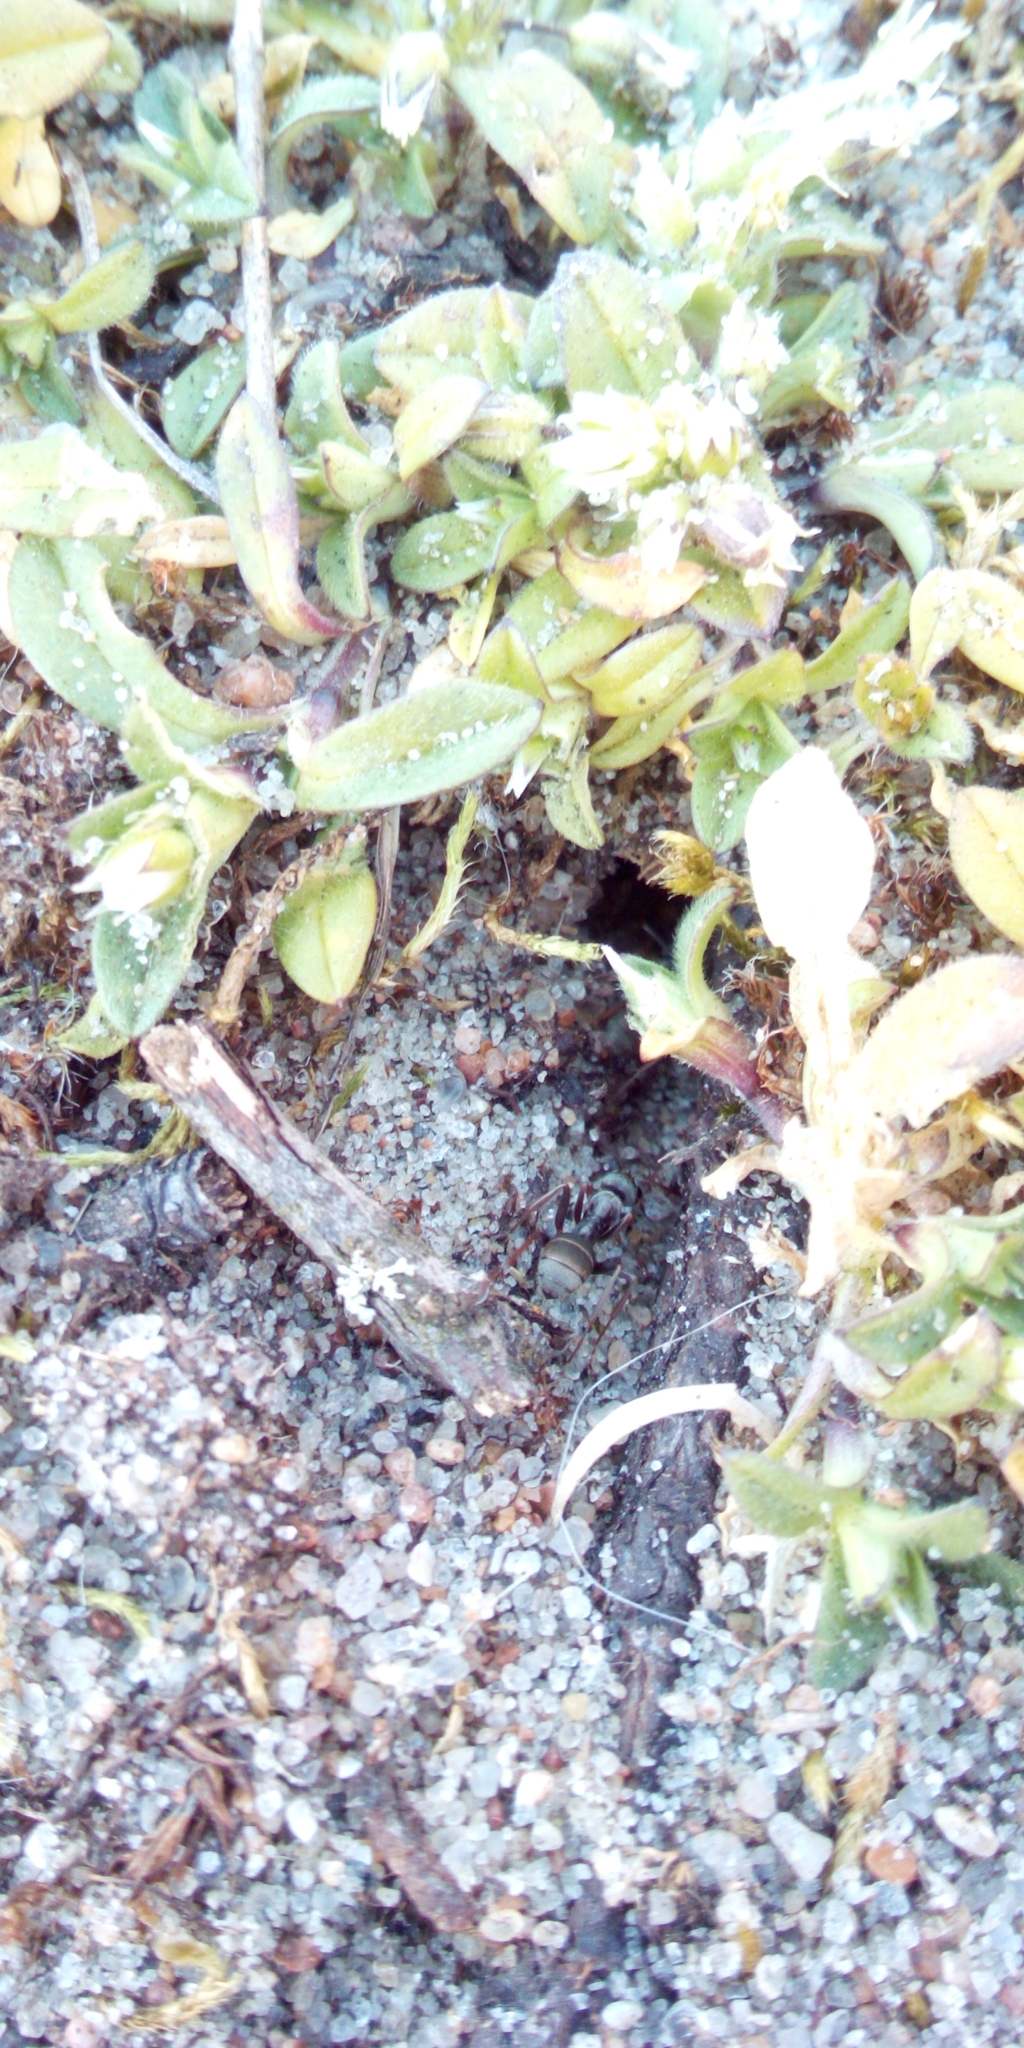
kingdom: Animalia
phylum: Arthropoda
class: Insecta
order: Hymenoptera
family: Formicidae
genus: Formica
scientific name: Formica
